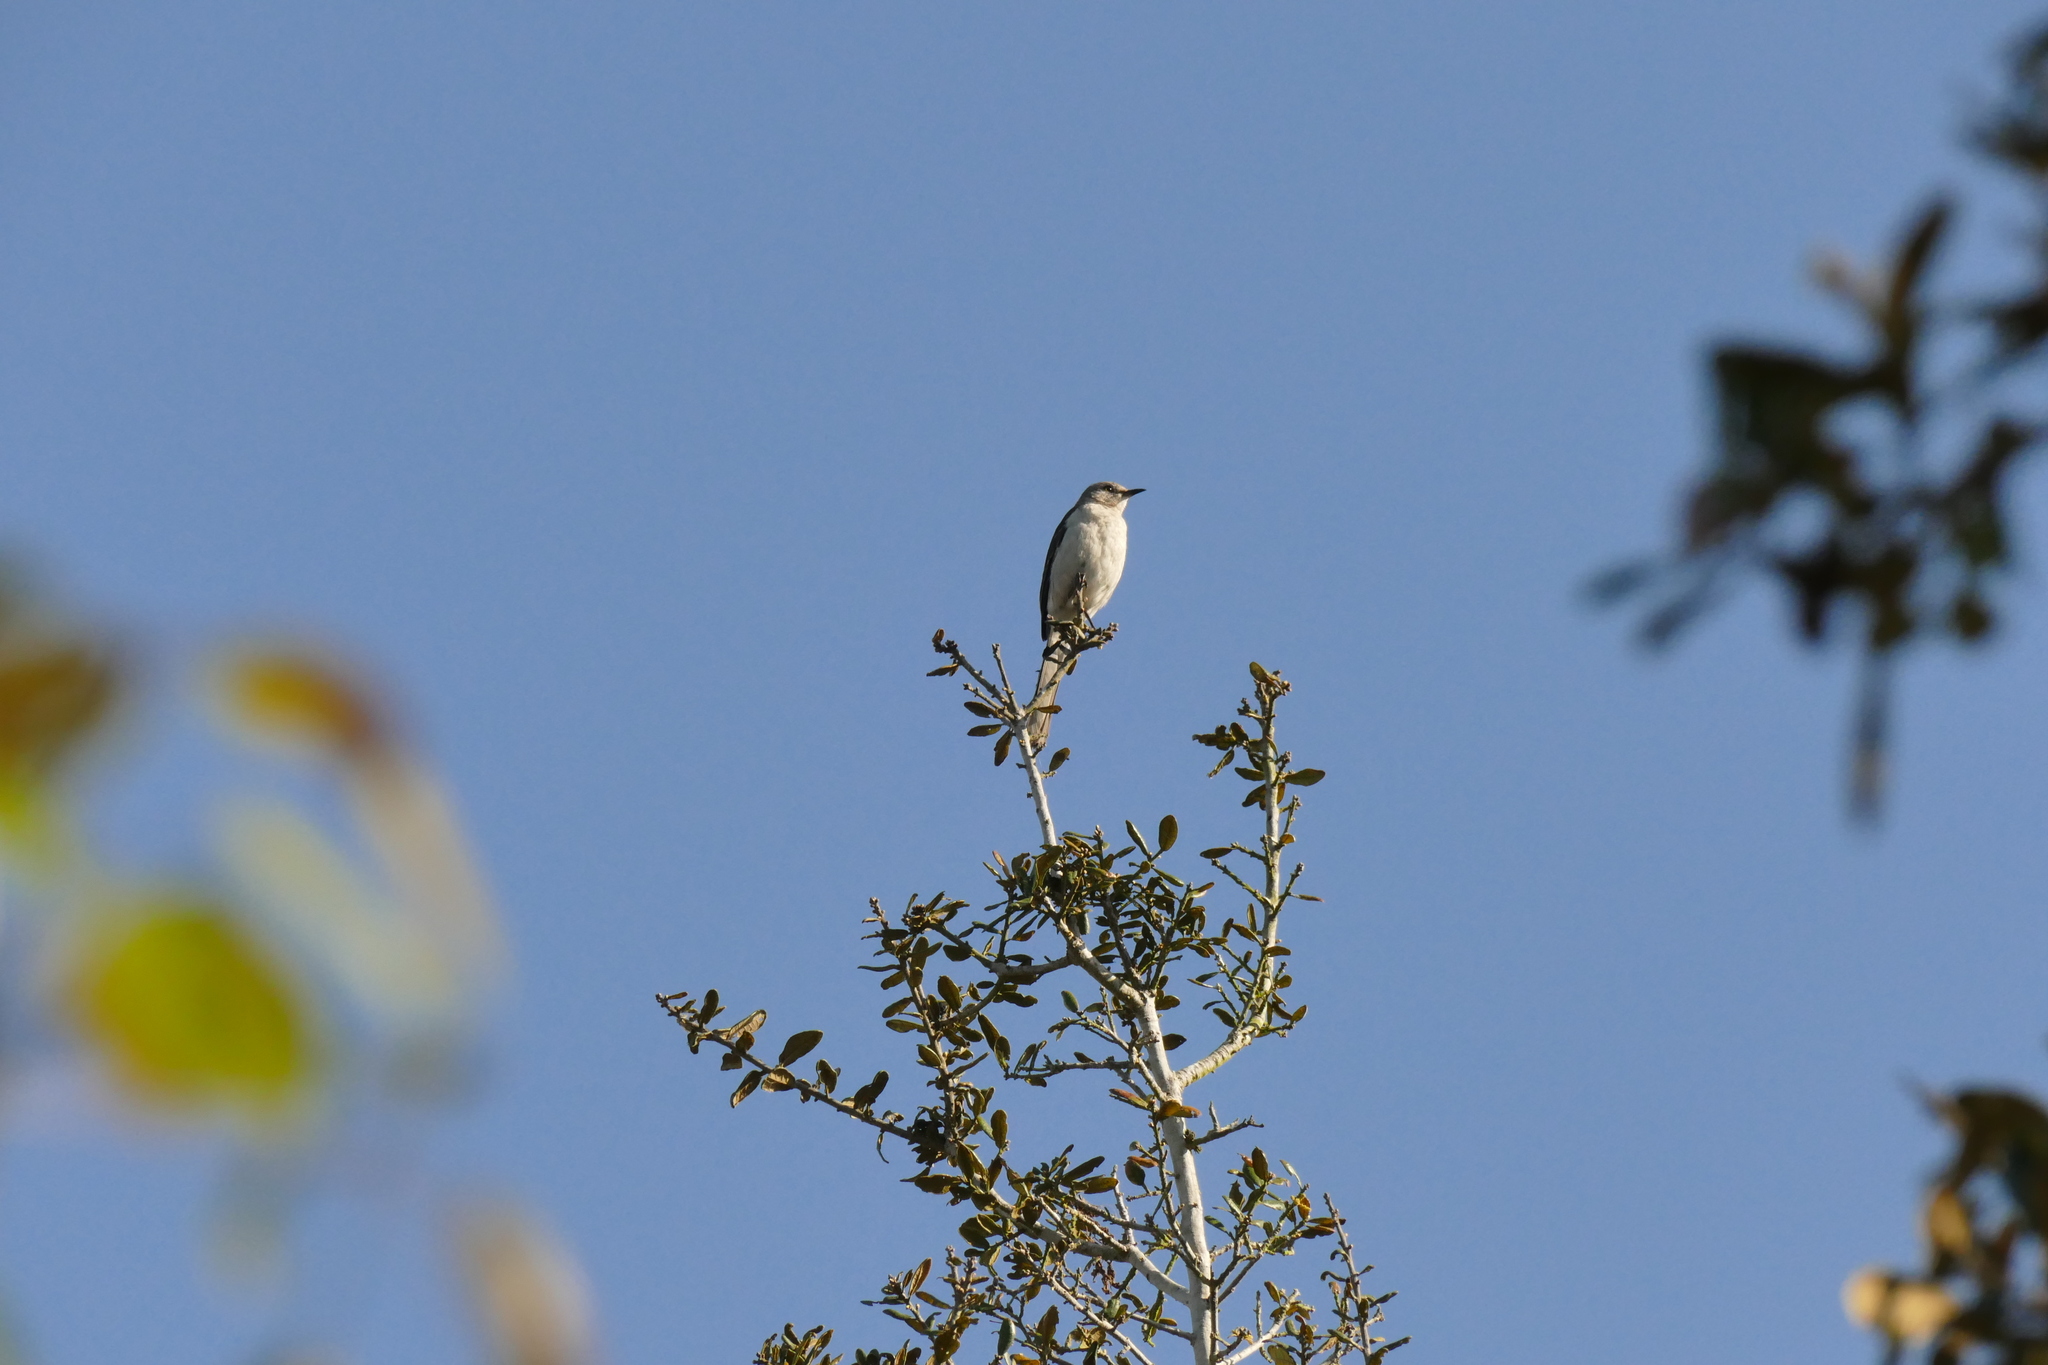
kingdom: Animalia
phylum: Chordata
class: Aves
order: Passeriformes
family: Mimidae
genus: Mimus
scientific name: Mimus polyglottos
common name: Northern mockingbird
